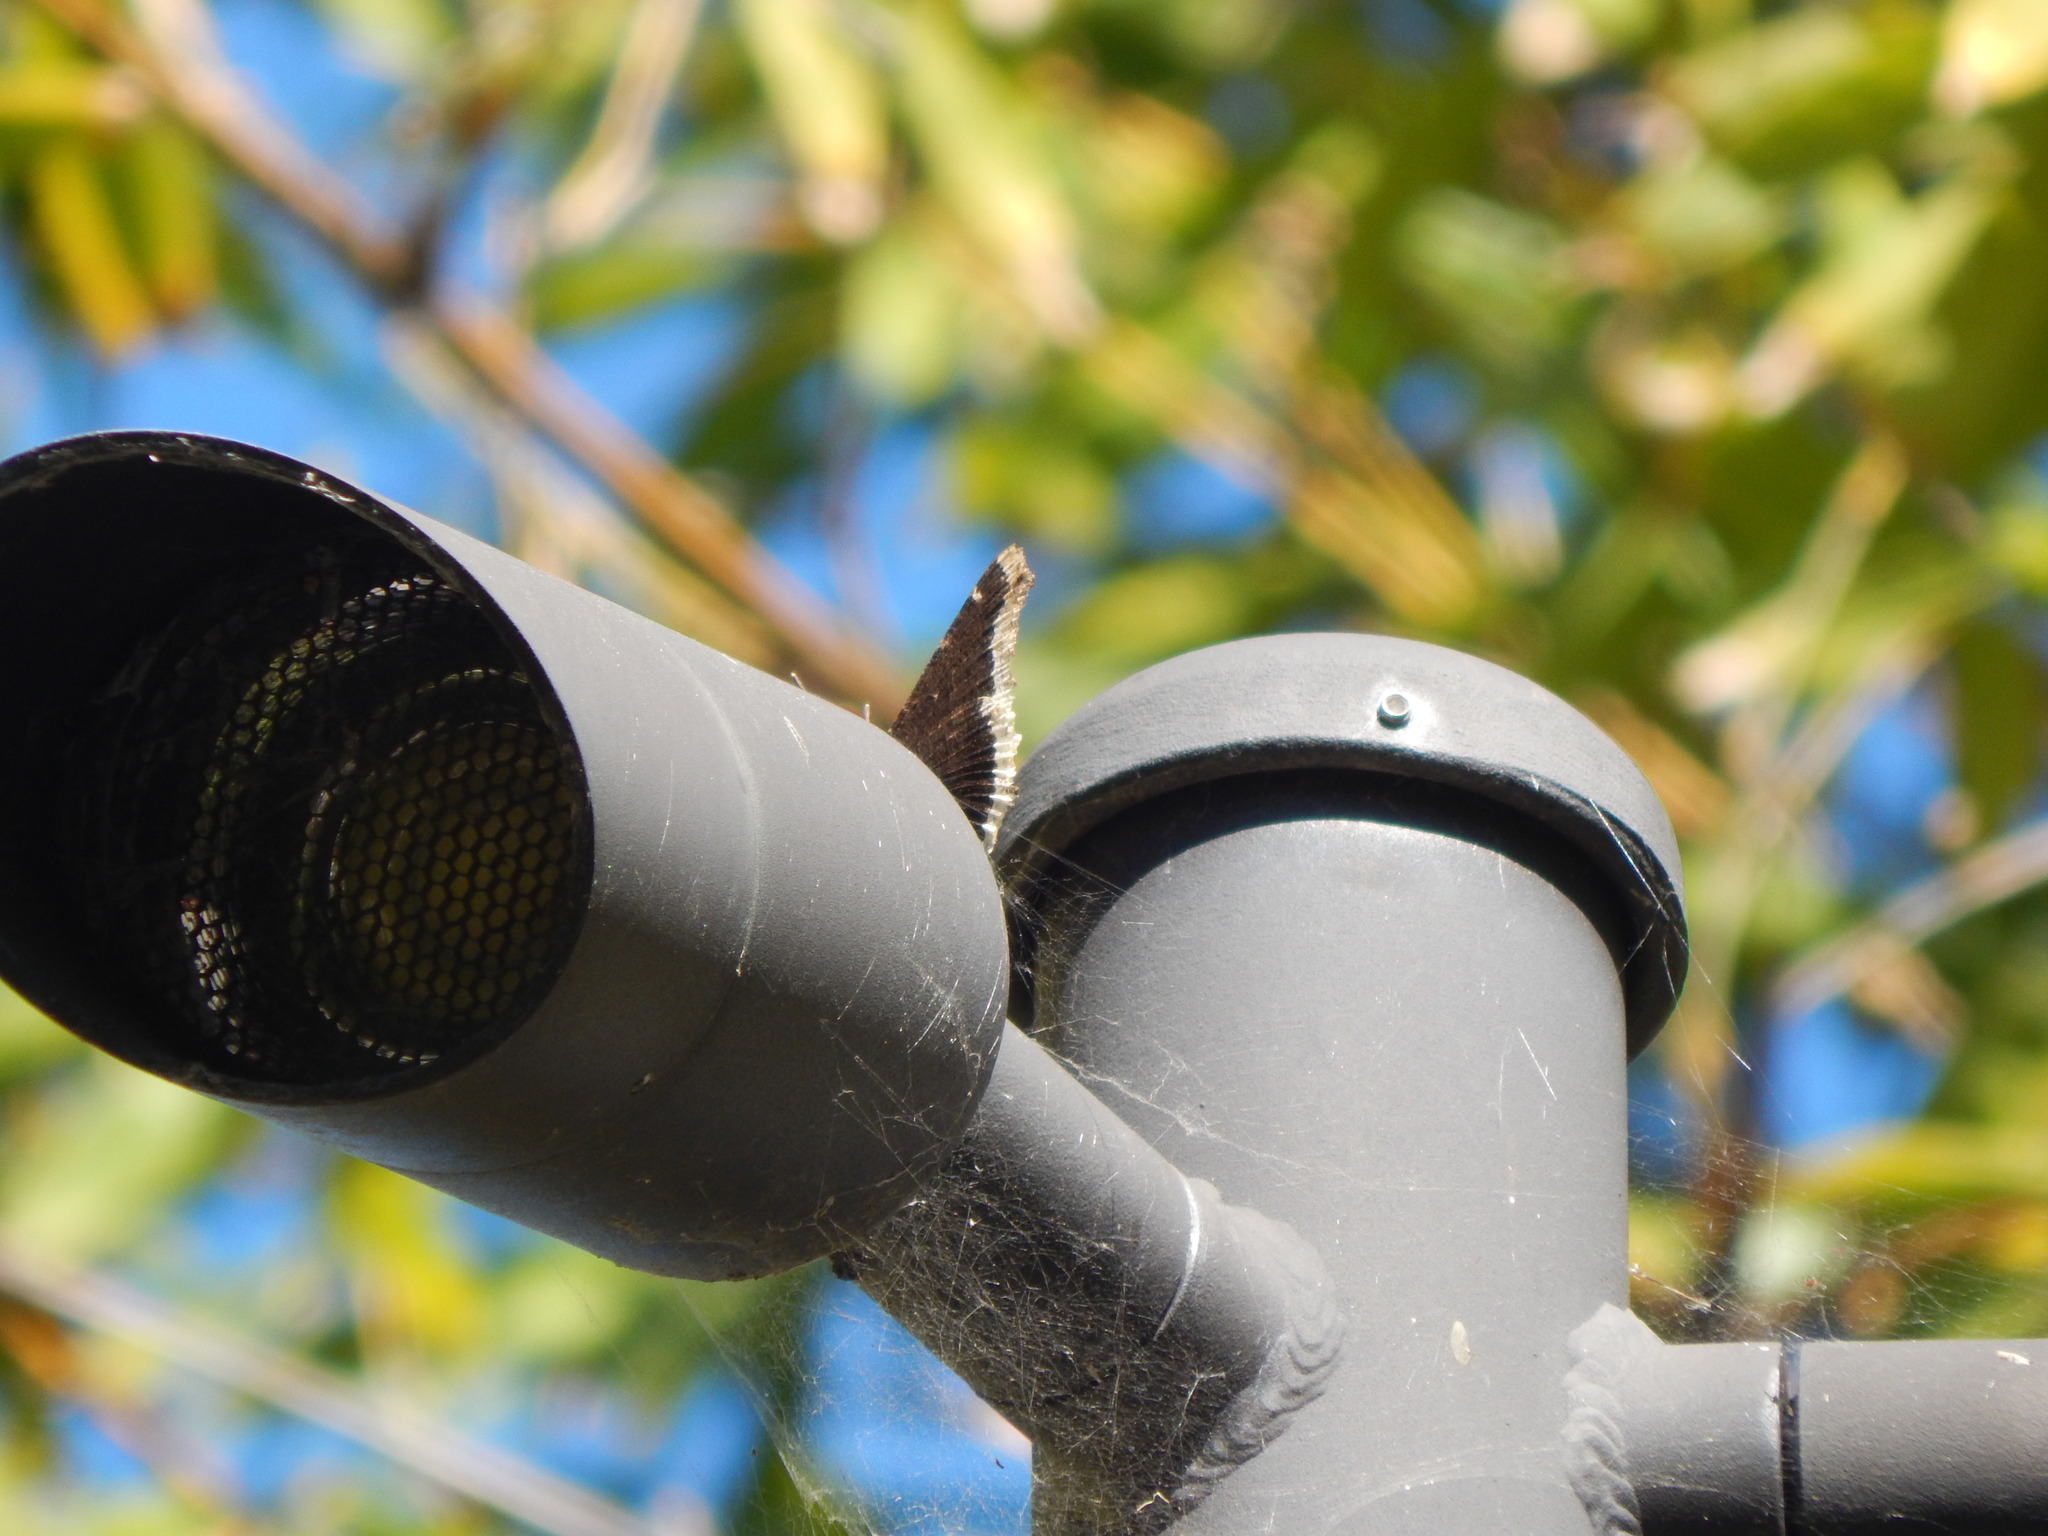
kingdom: Animalia
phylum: Arthropoda
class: Insecta
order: Lepidoptera
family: Nymphalidae
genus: Nymphalis
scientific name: Nymphalis antiopa
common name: Camberwell beauty
